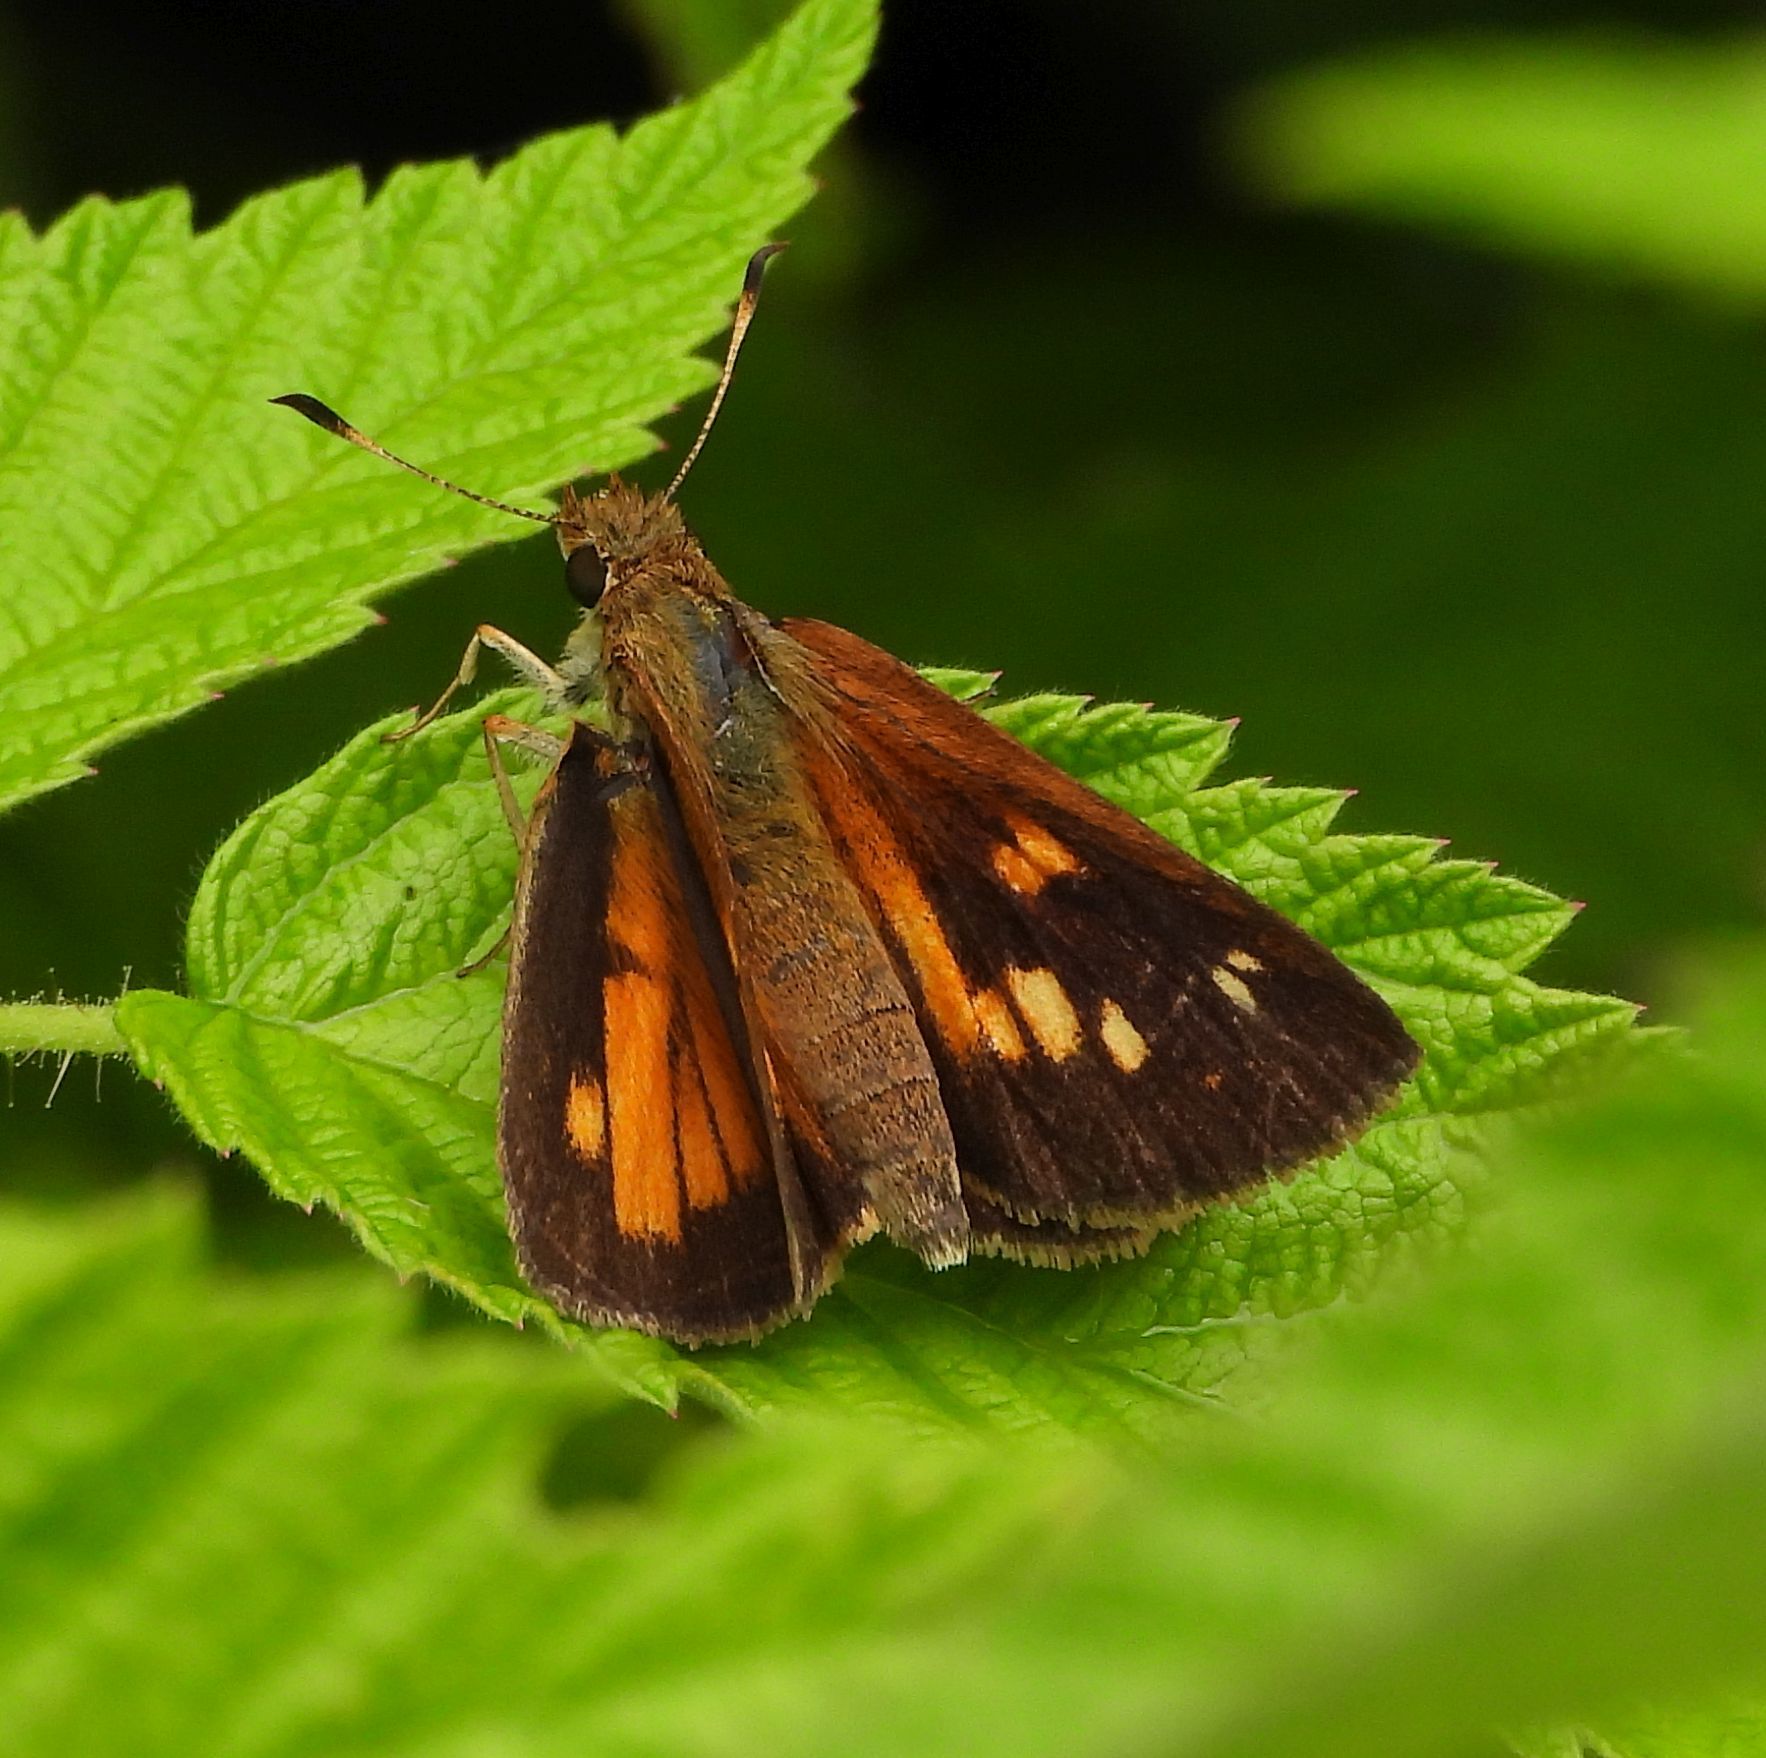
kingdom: Animalia
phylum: Arthropoda
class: Insecta
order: Lepidoptera
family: Hesperiidae
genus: Poanes
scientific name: Poanes viator
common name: Broad-winged skipper
